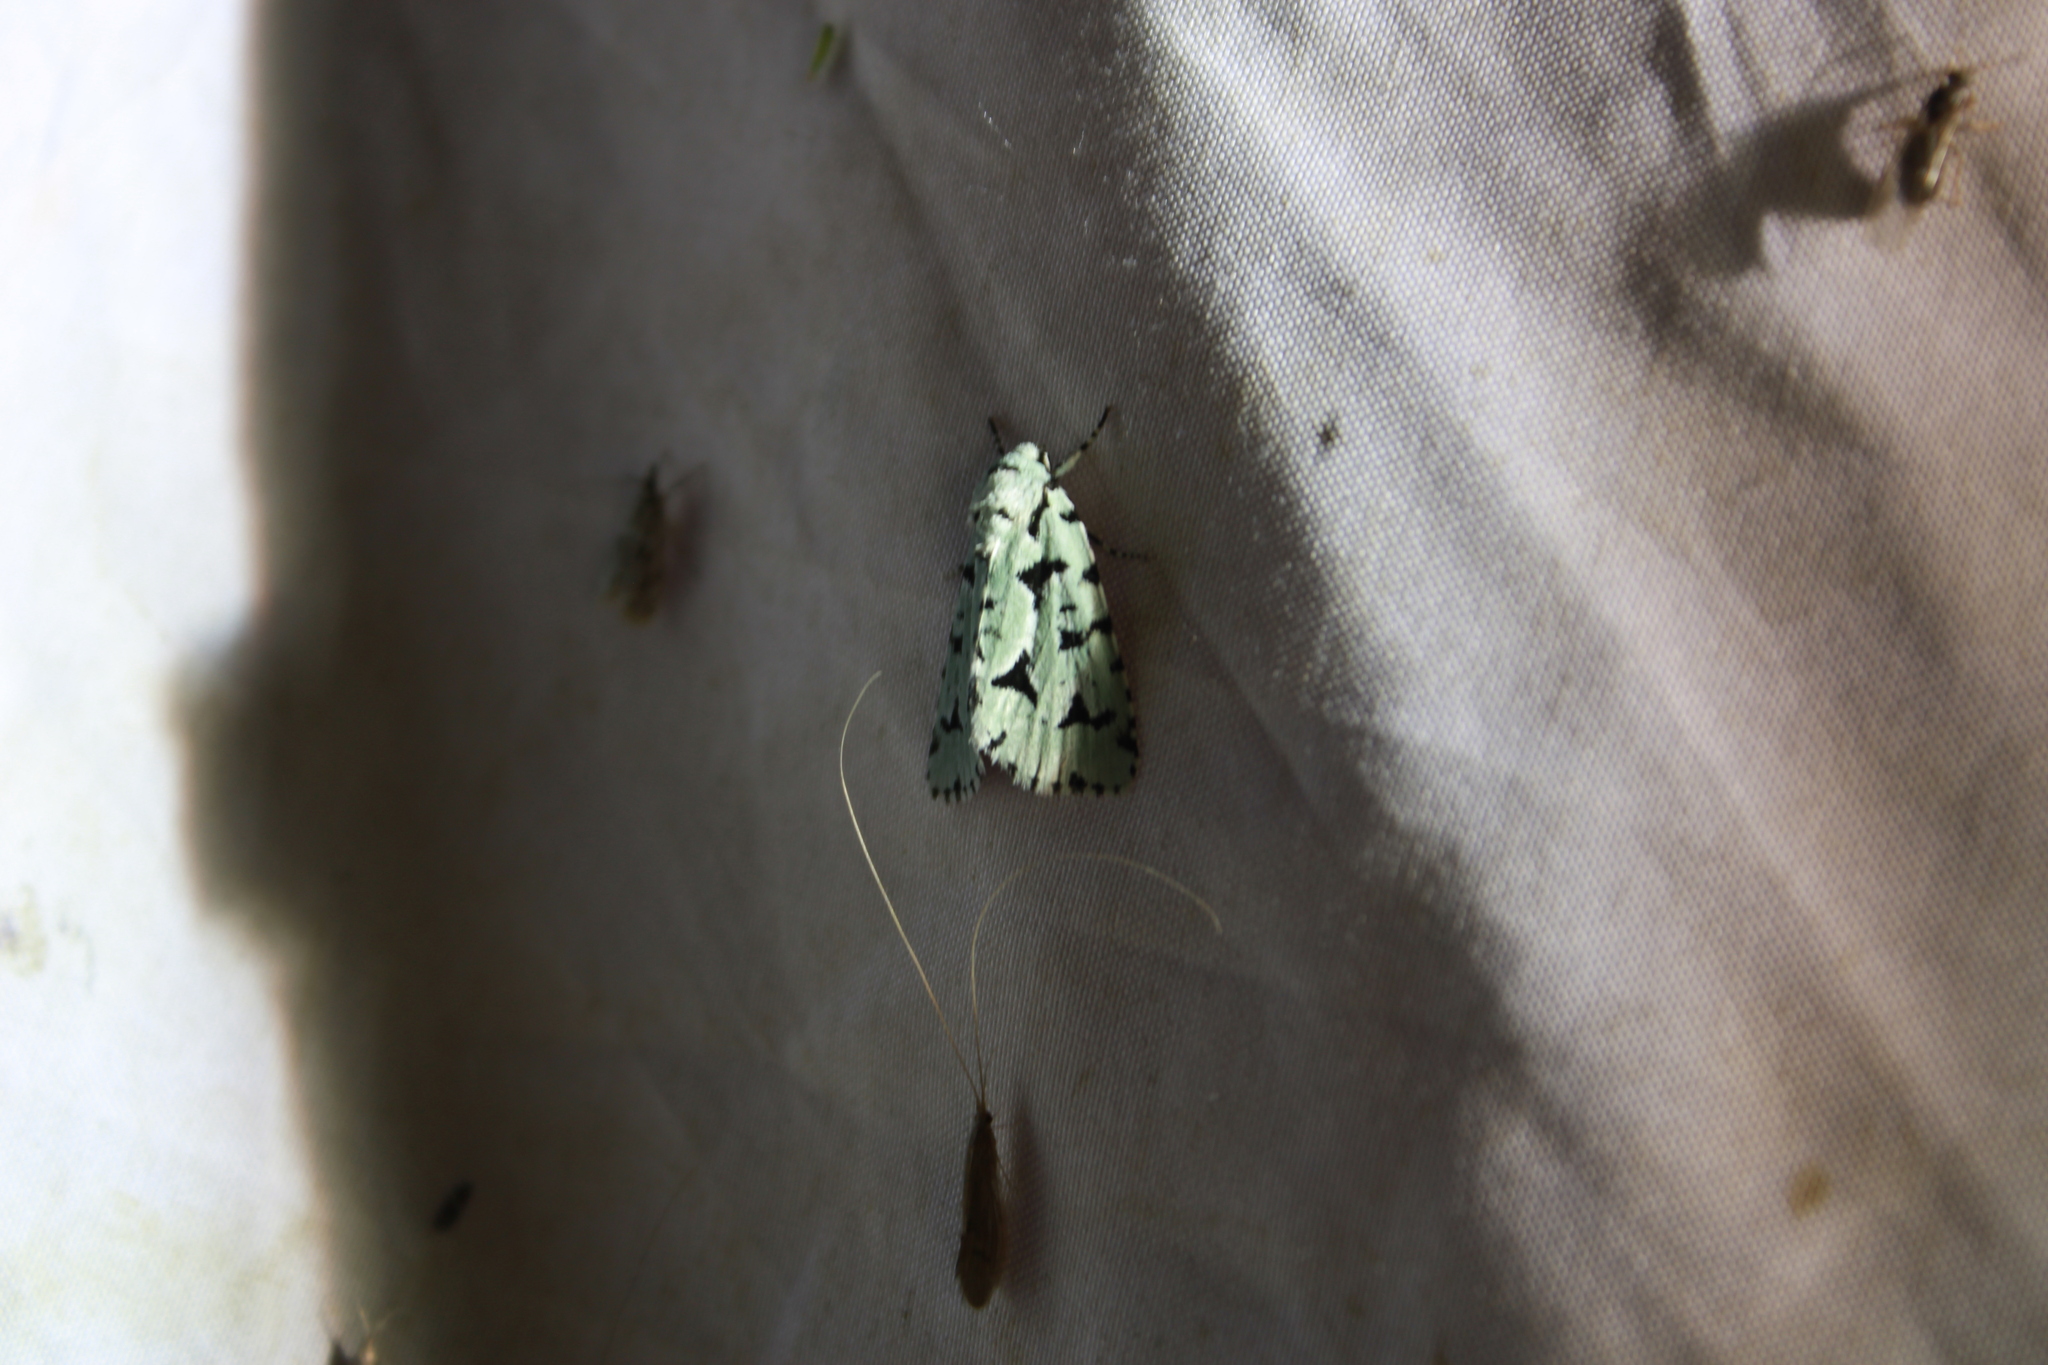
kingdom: Animalia
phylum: Arthropoda
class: Insecta
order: Lepidoptera
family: Noctuidae
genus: Acronicta
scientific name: Acronicta fallax
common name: Green marvel
